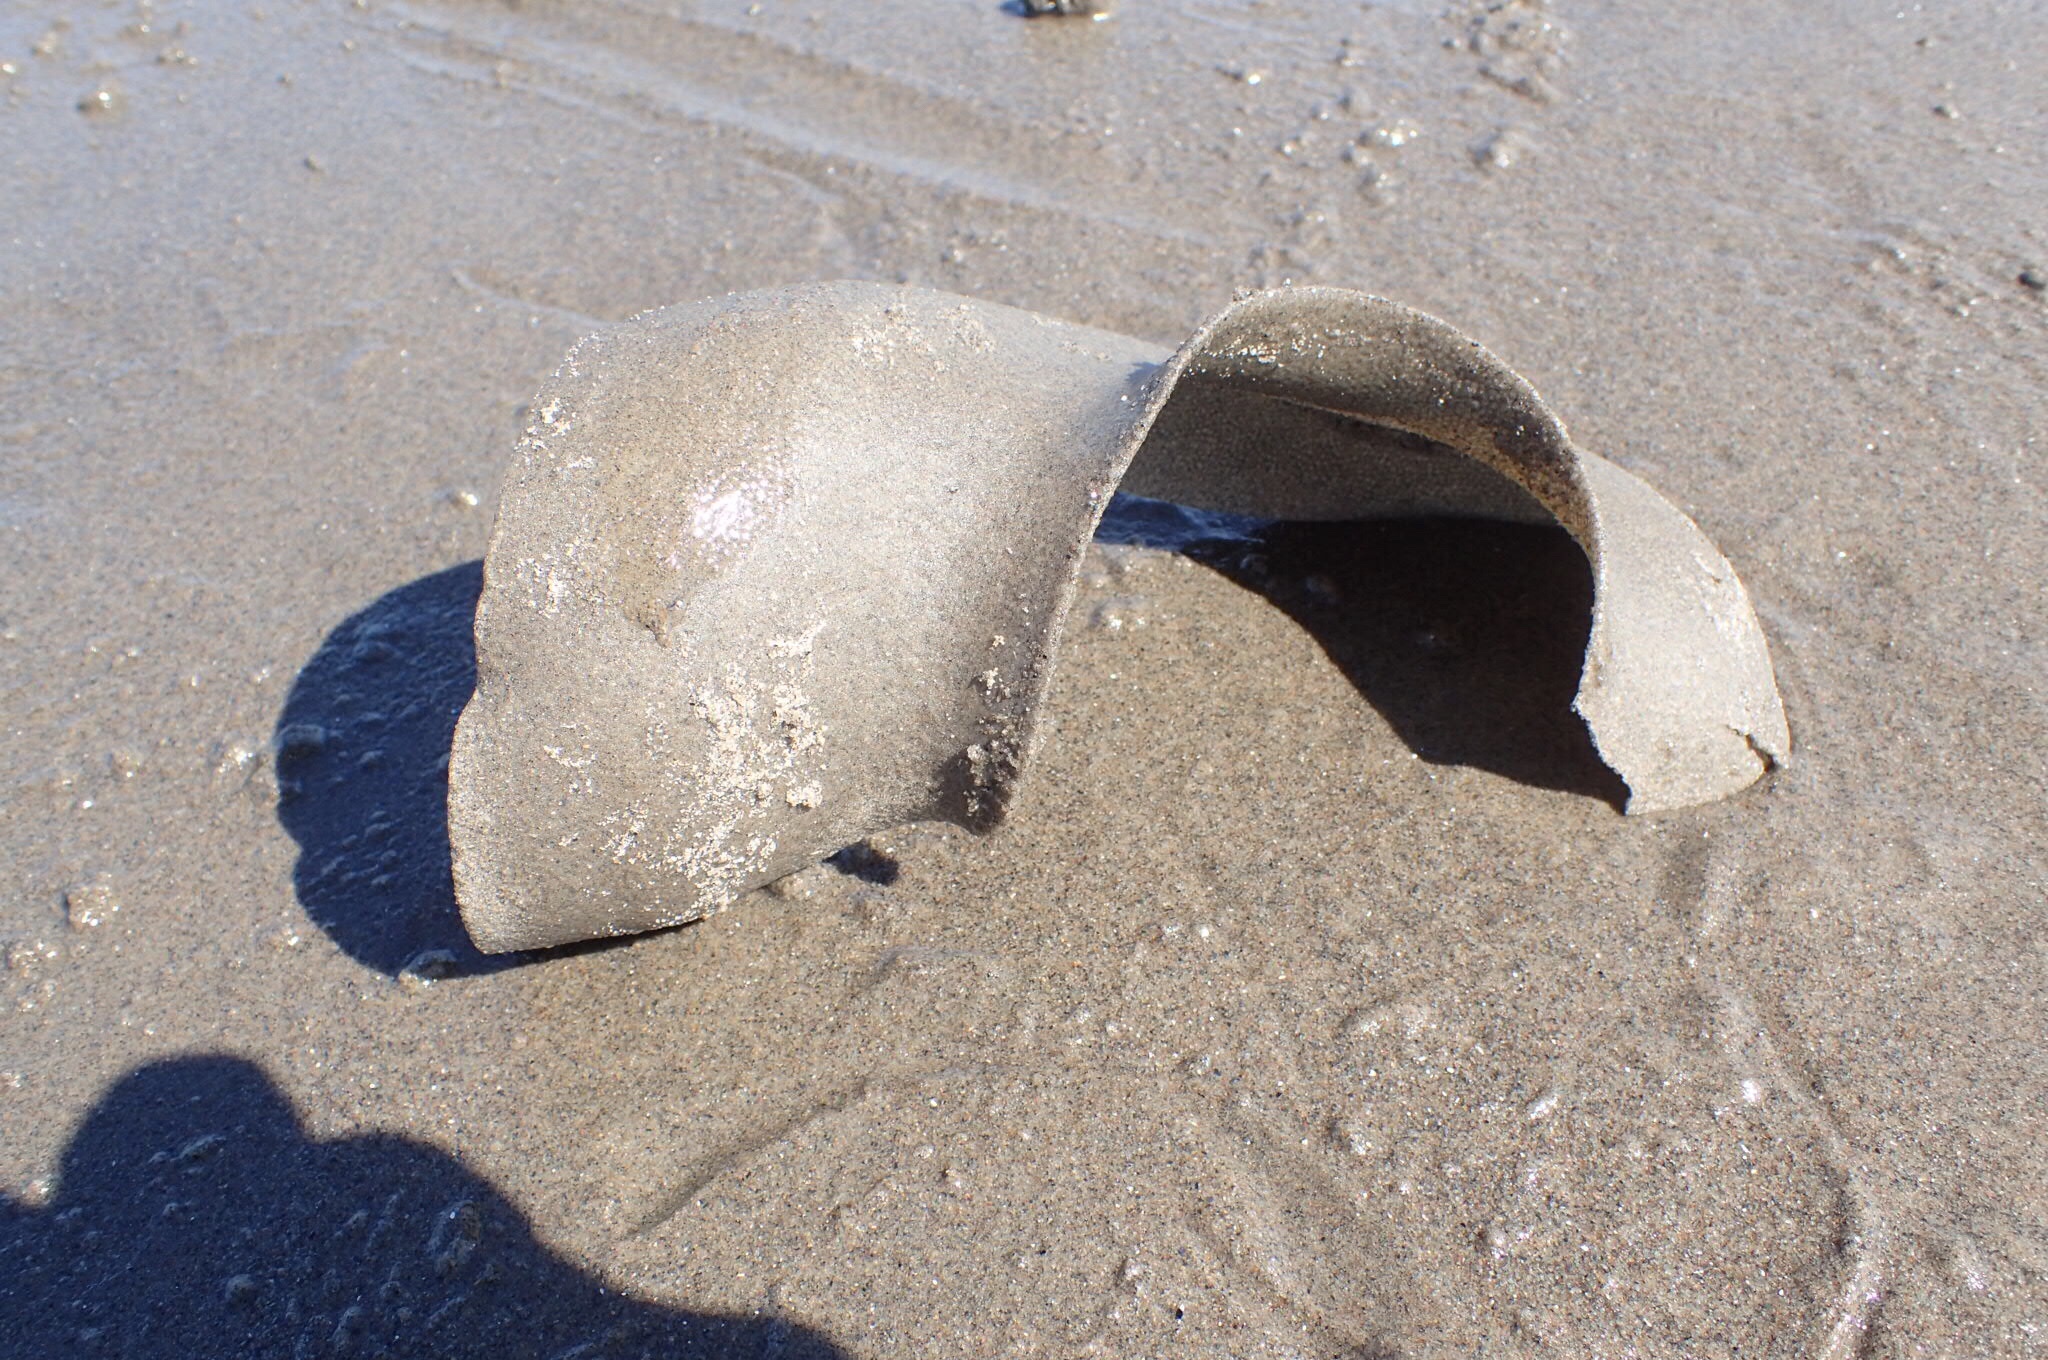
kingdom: Animalia
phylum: Mollusca
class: Gastropoda
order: Littorinimorpha
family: Naticidae
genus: Euspira
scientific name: Euspira heros
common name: Common northern moonsnail
